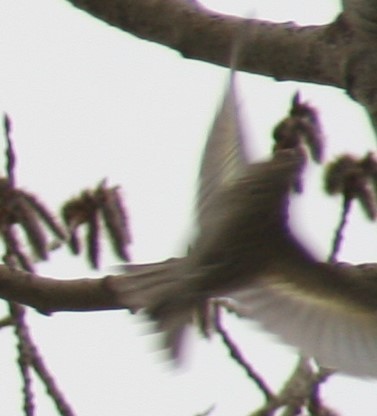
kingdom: Animalia
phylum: Chordata
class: Aves
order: Passeriformes
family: Fringillidae
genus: Spinus
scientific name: Spinus pinus
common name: Pine siskin
